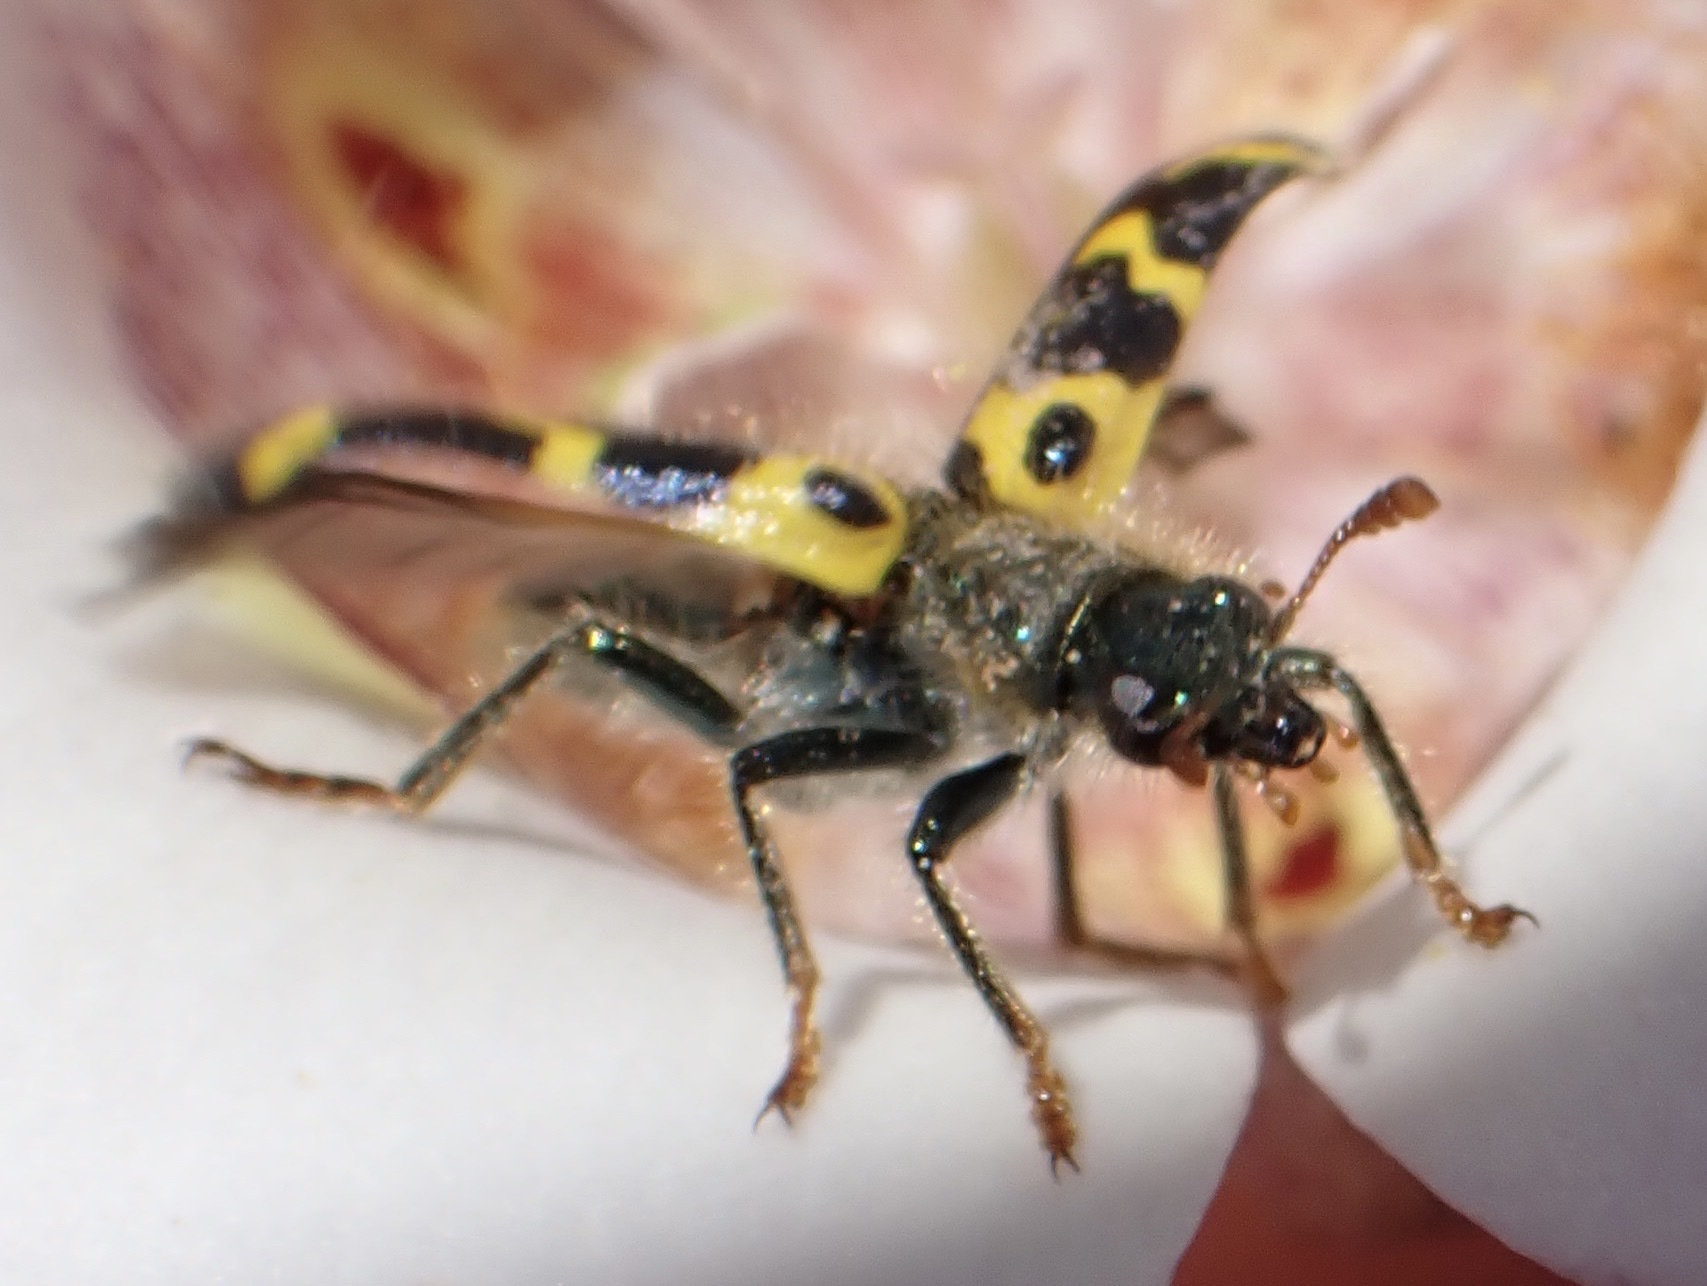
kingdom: Animalia
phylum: Arthropoda
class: Insecta
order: Coleoptera
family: Cleridae
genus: Trichodes
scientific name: Trichodes ornatus
